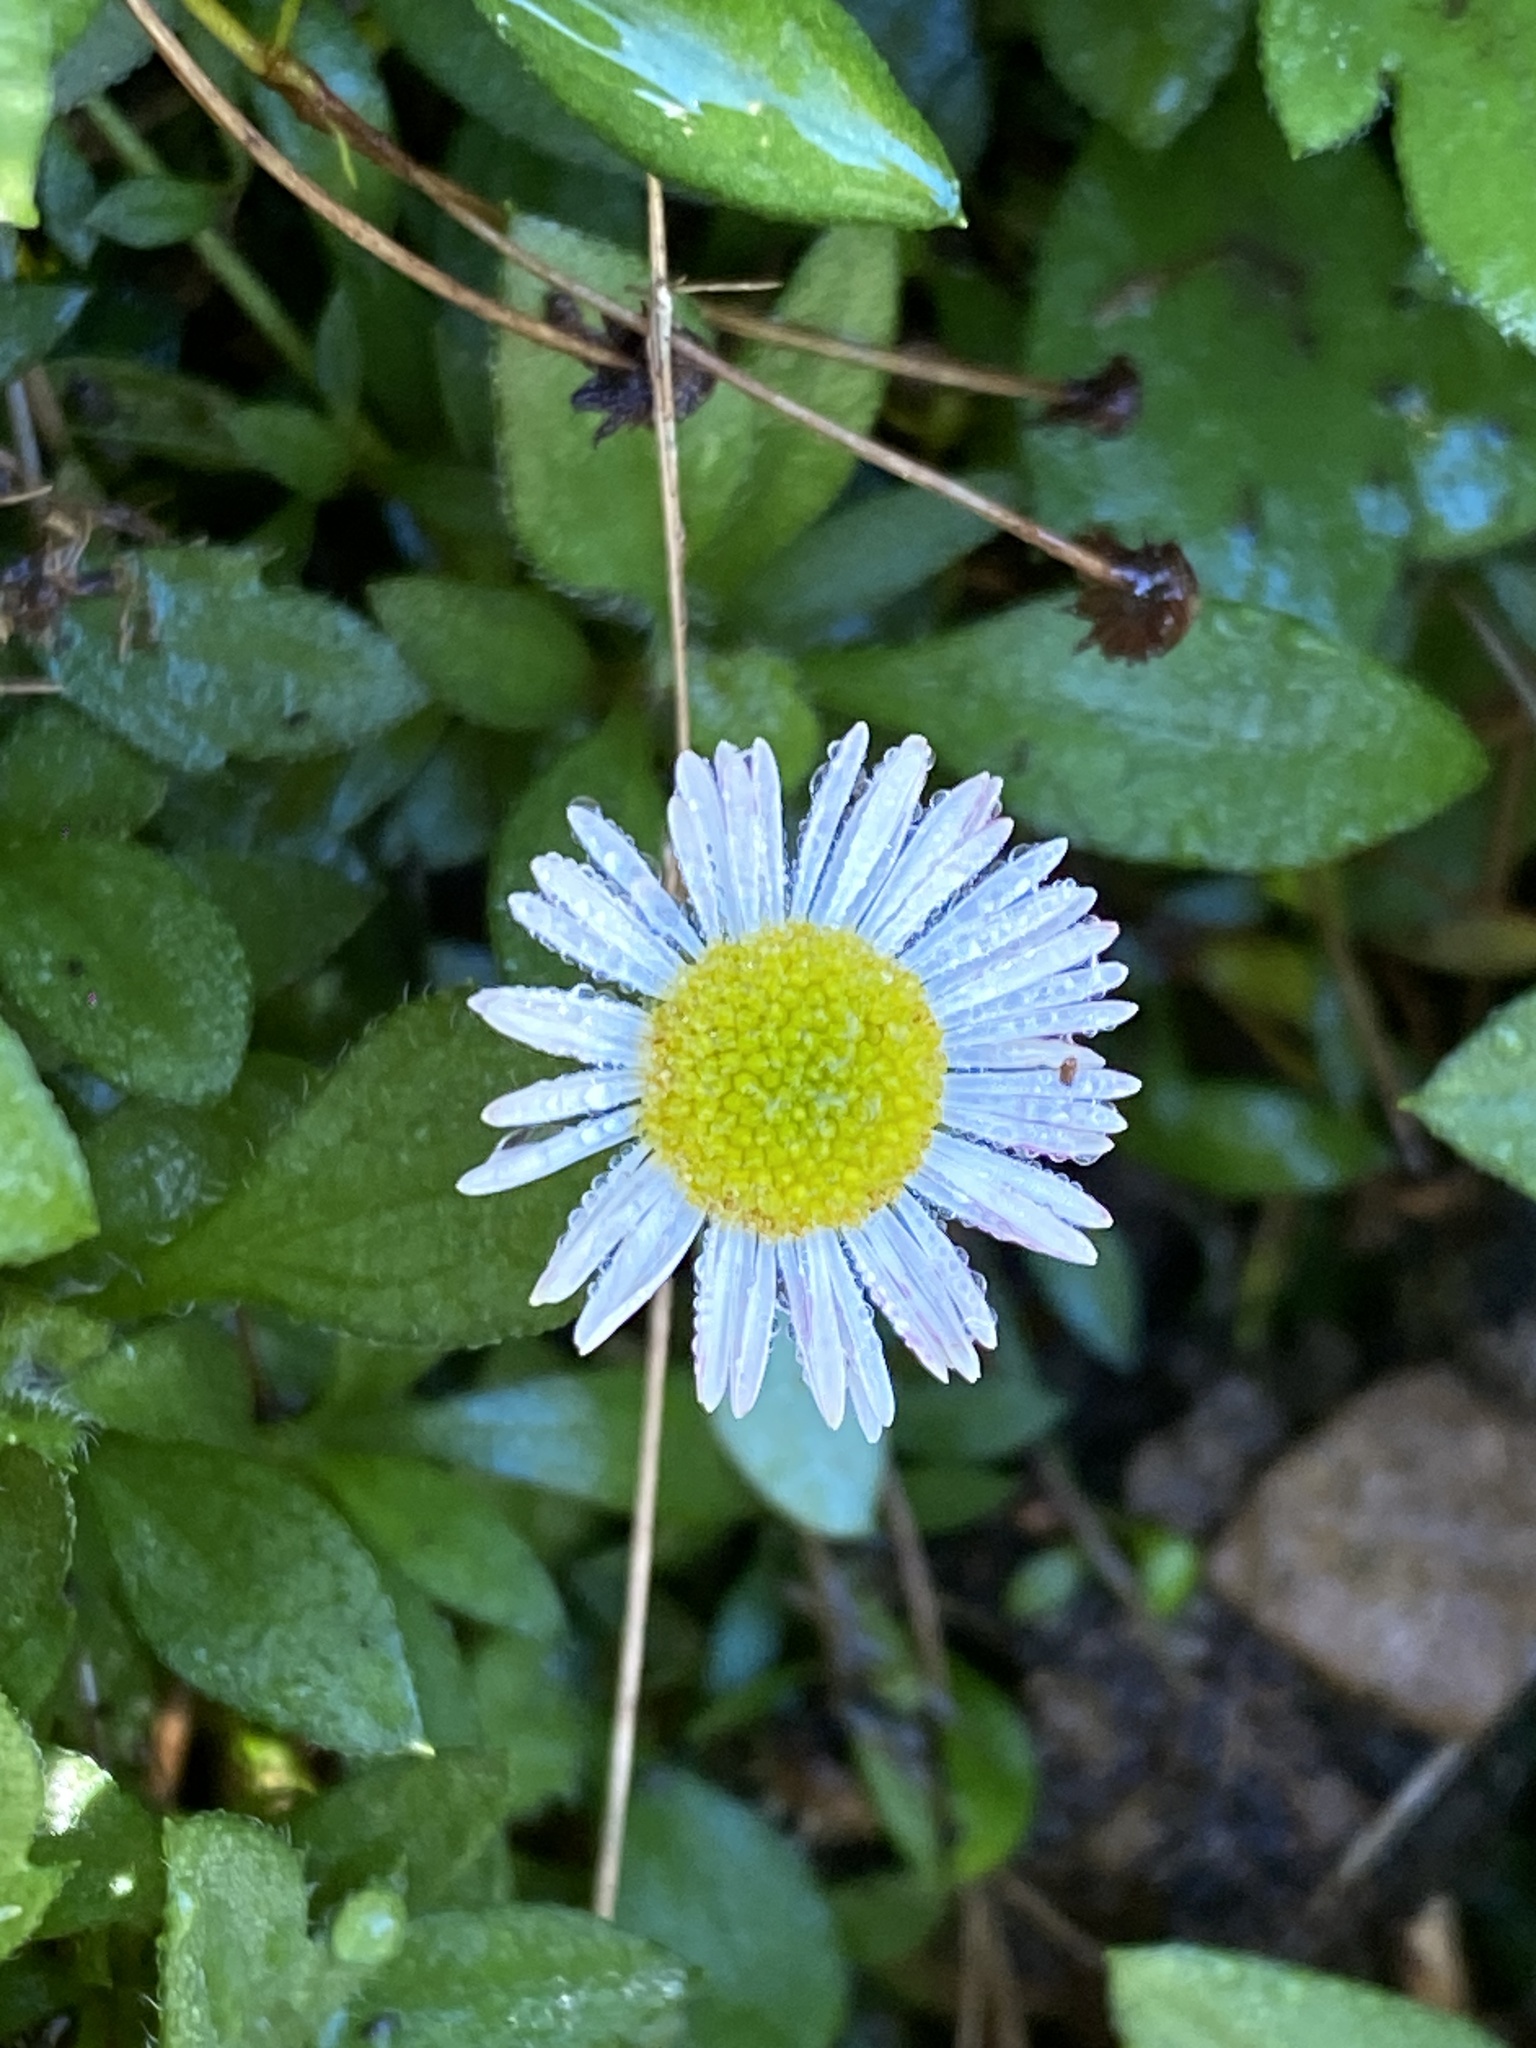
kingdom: Plantae
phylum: Tracheophyta
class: Magnoliopsida
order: Asterales
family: Asteraceae
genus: Erigeron
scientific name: Erigeron karvinskianus
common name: Mexican fleabane
